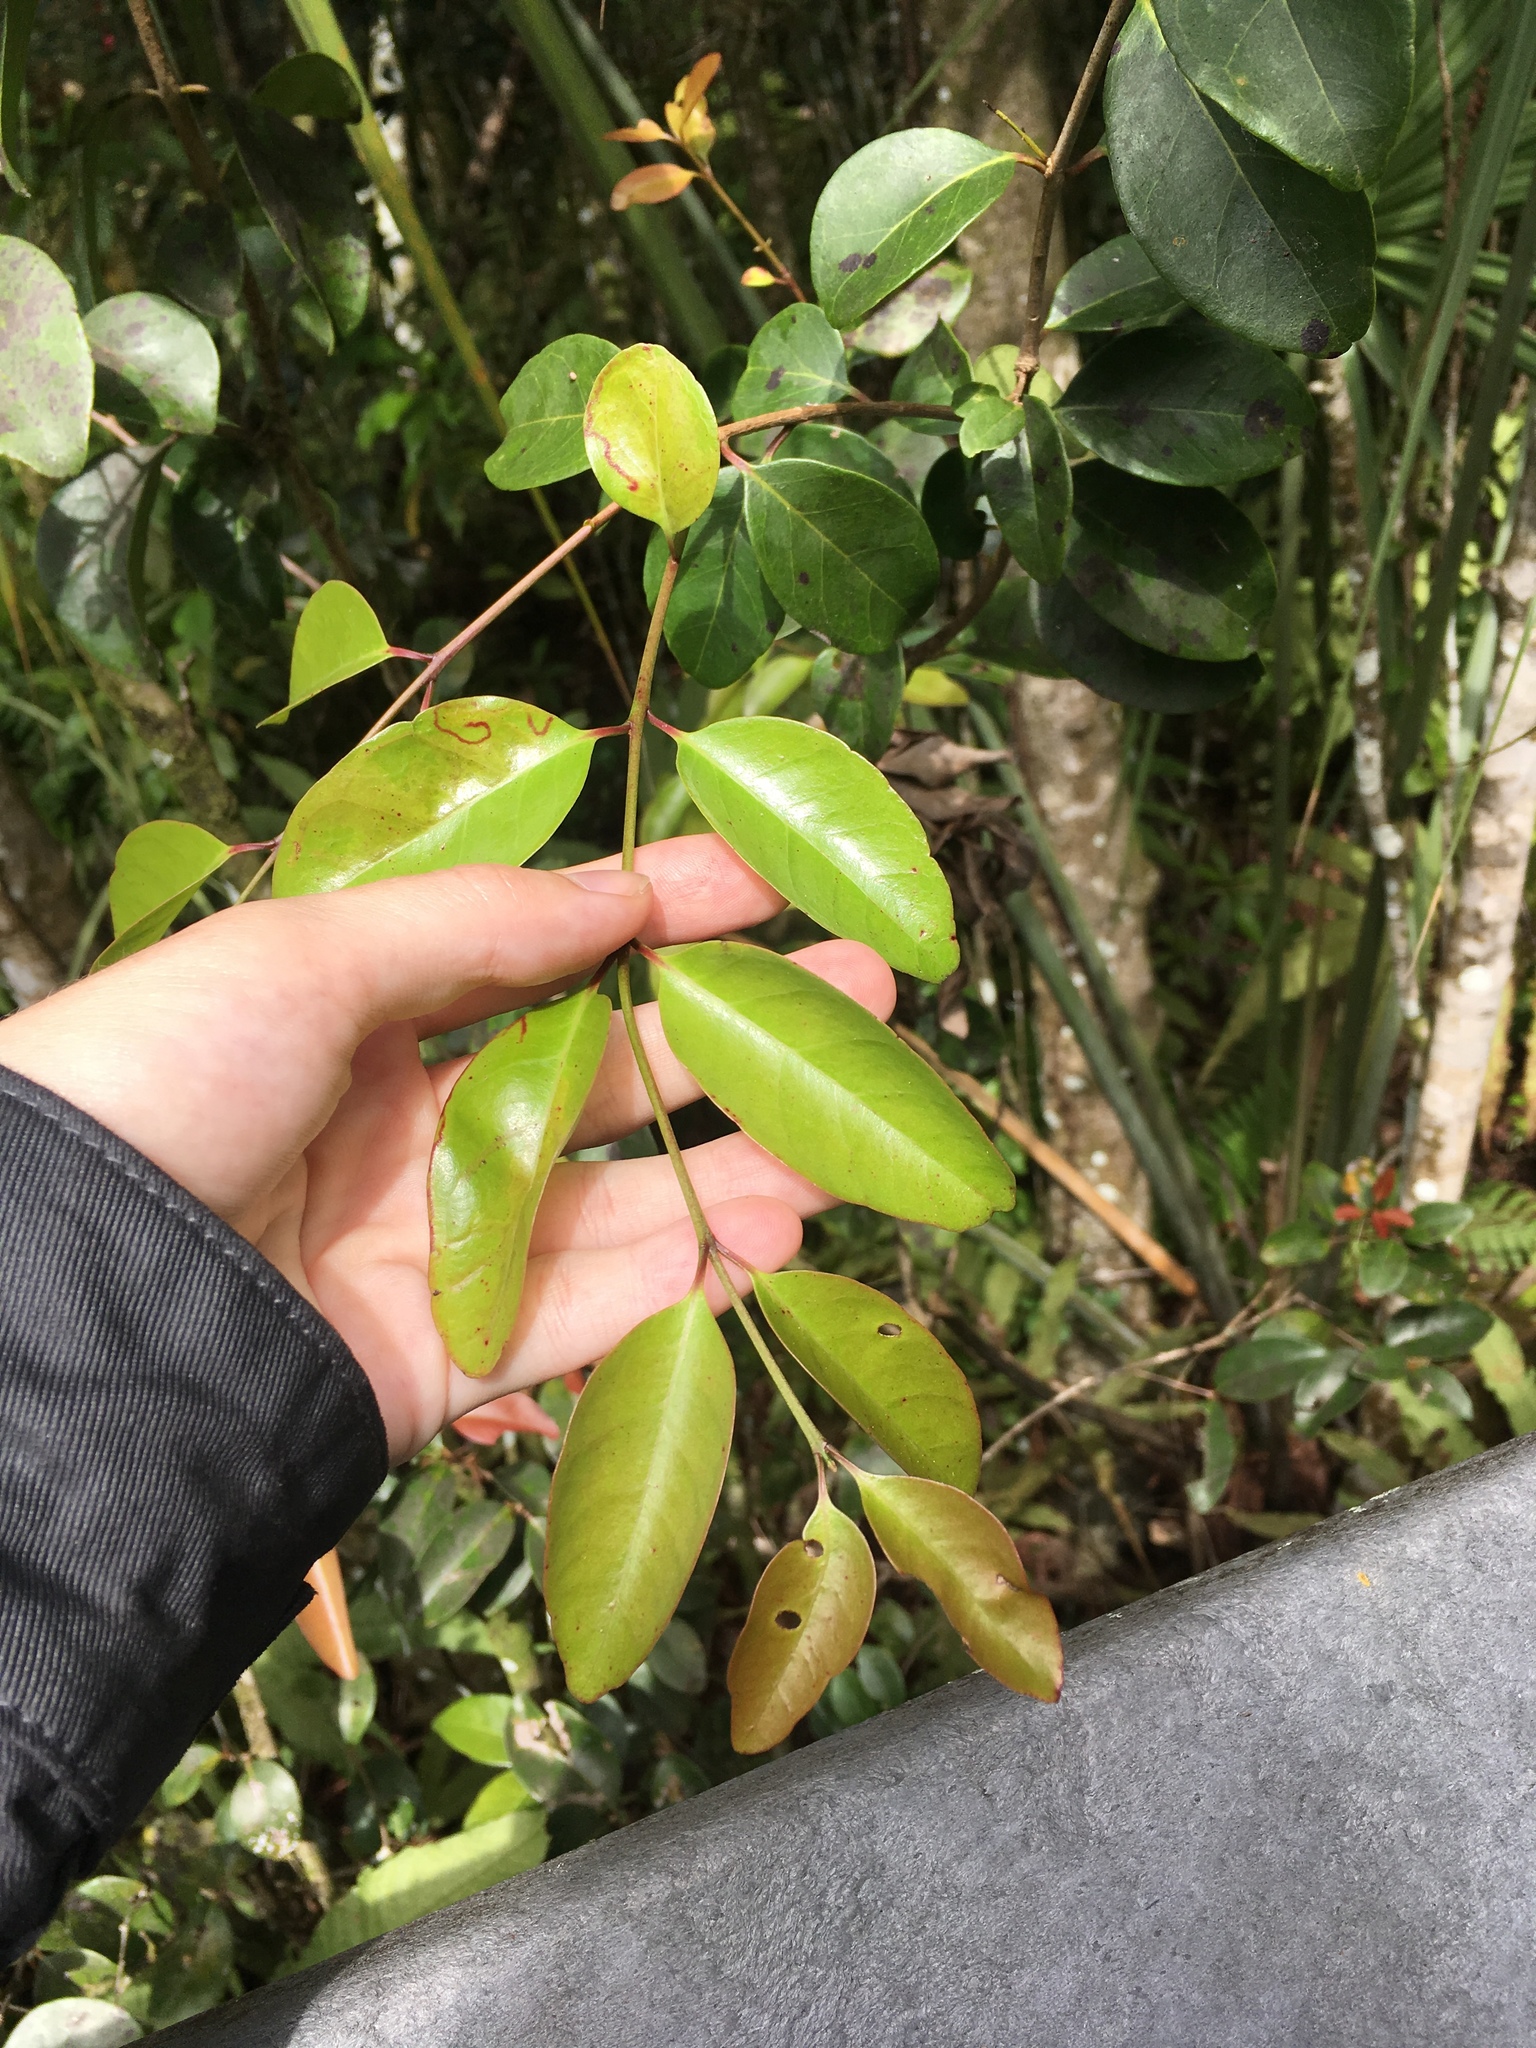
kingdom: Plantae
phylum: Tracheophyta
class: Magnoliopsida
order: Myrtales
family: Myrtaceae
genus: Eugenia
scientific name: Eugenia axillaris
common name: Choaky berry
